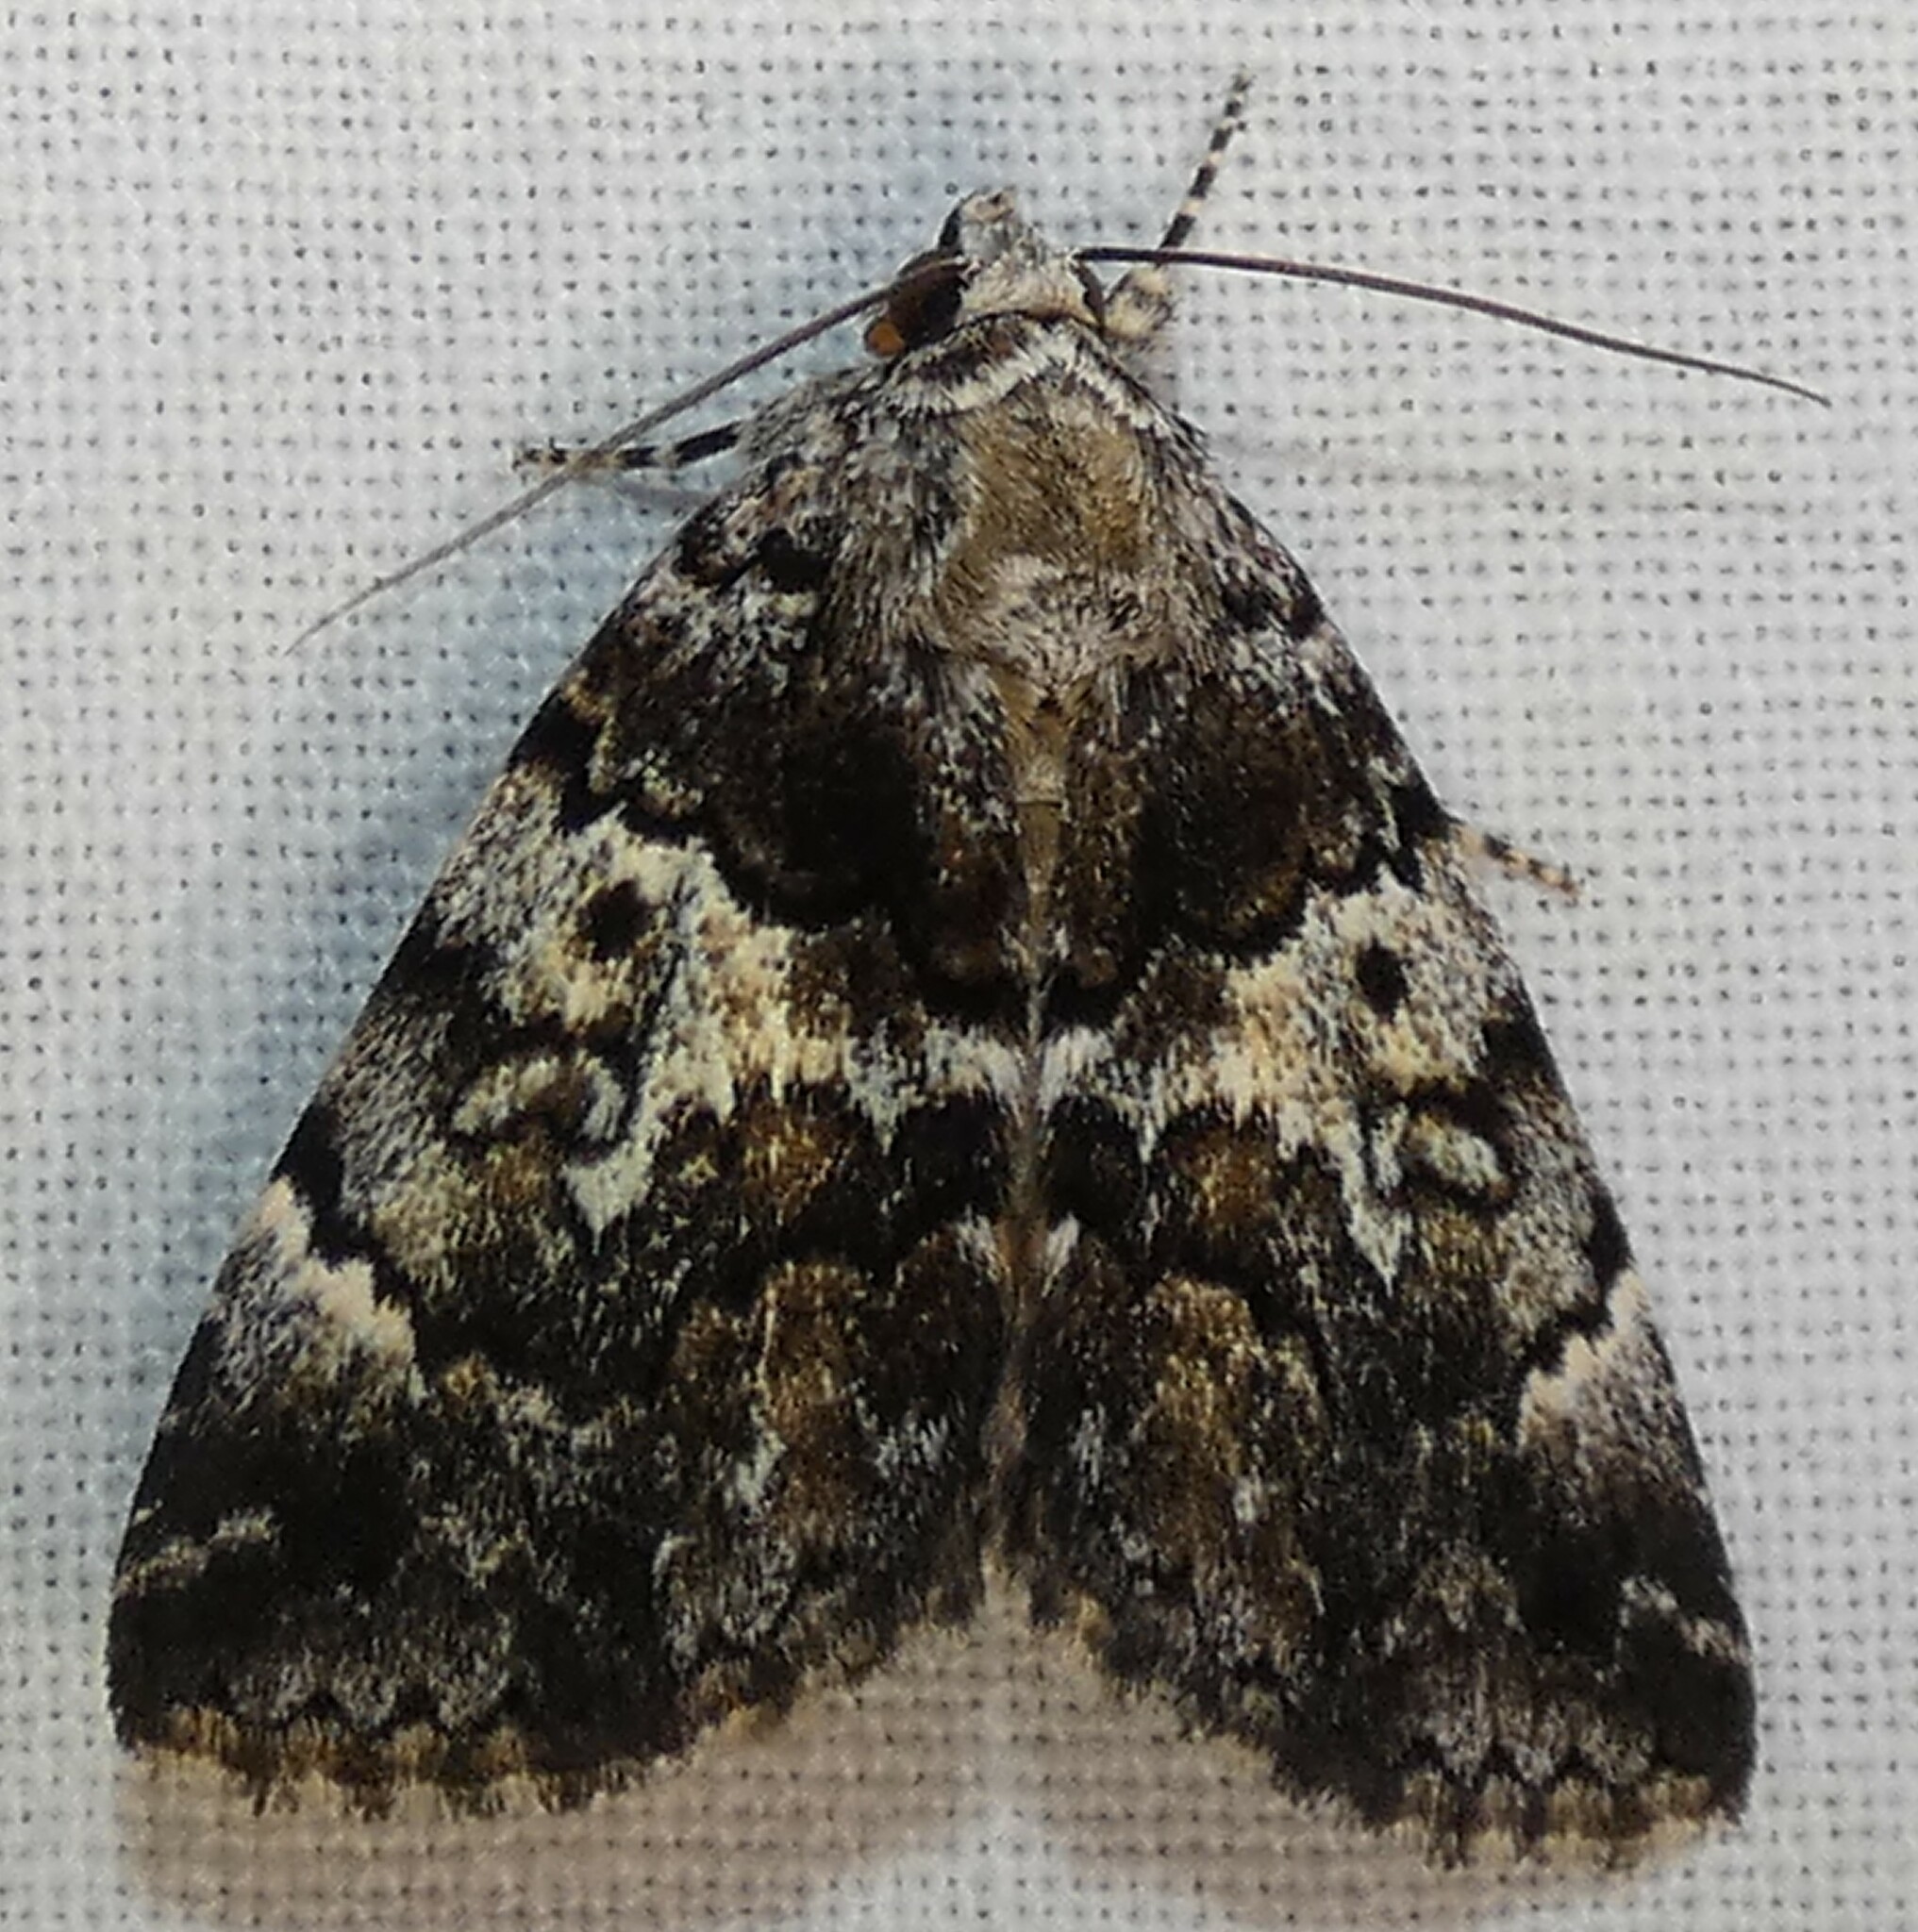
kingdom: Animalia
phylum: Arthropoda
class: Insecta
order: Lepidoptera
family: Erebidae
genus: Allotria
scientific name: Allotria elonympha
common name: False underwing
